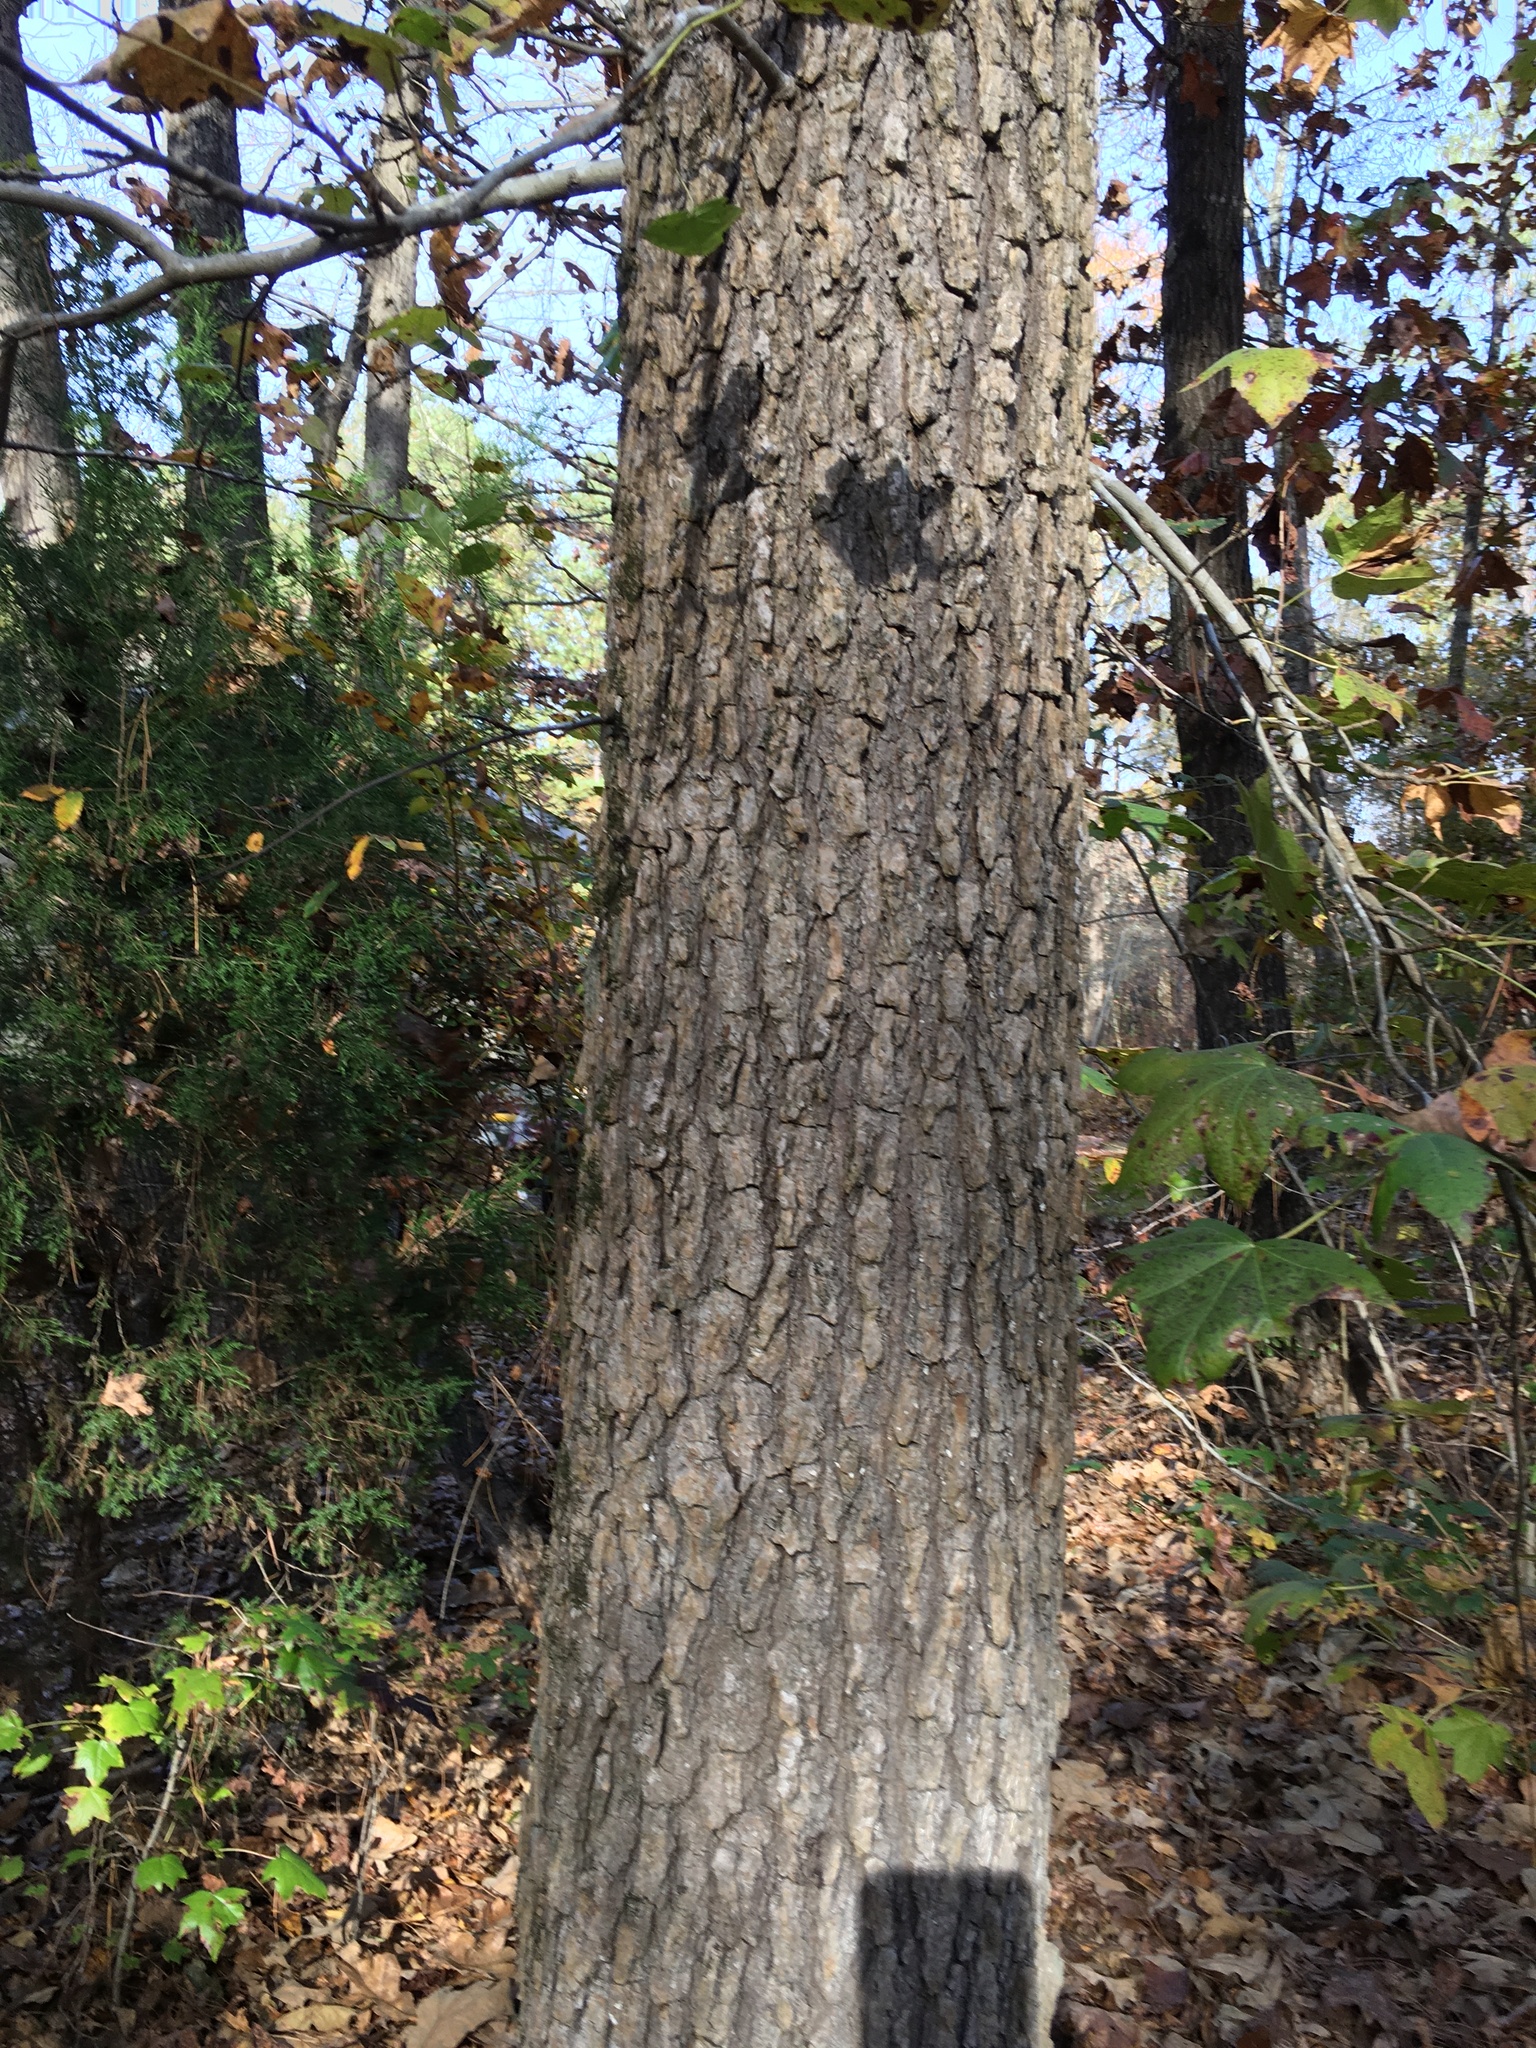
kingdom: Plantae
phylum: Tracheophyta
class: Magnoliopsida
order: Saxifragales
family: Altingiaceae
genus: Liquidambar
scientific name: Liquidambar styraciflua
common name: Sweet gum
